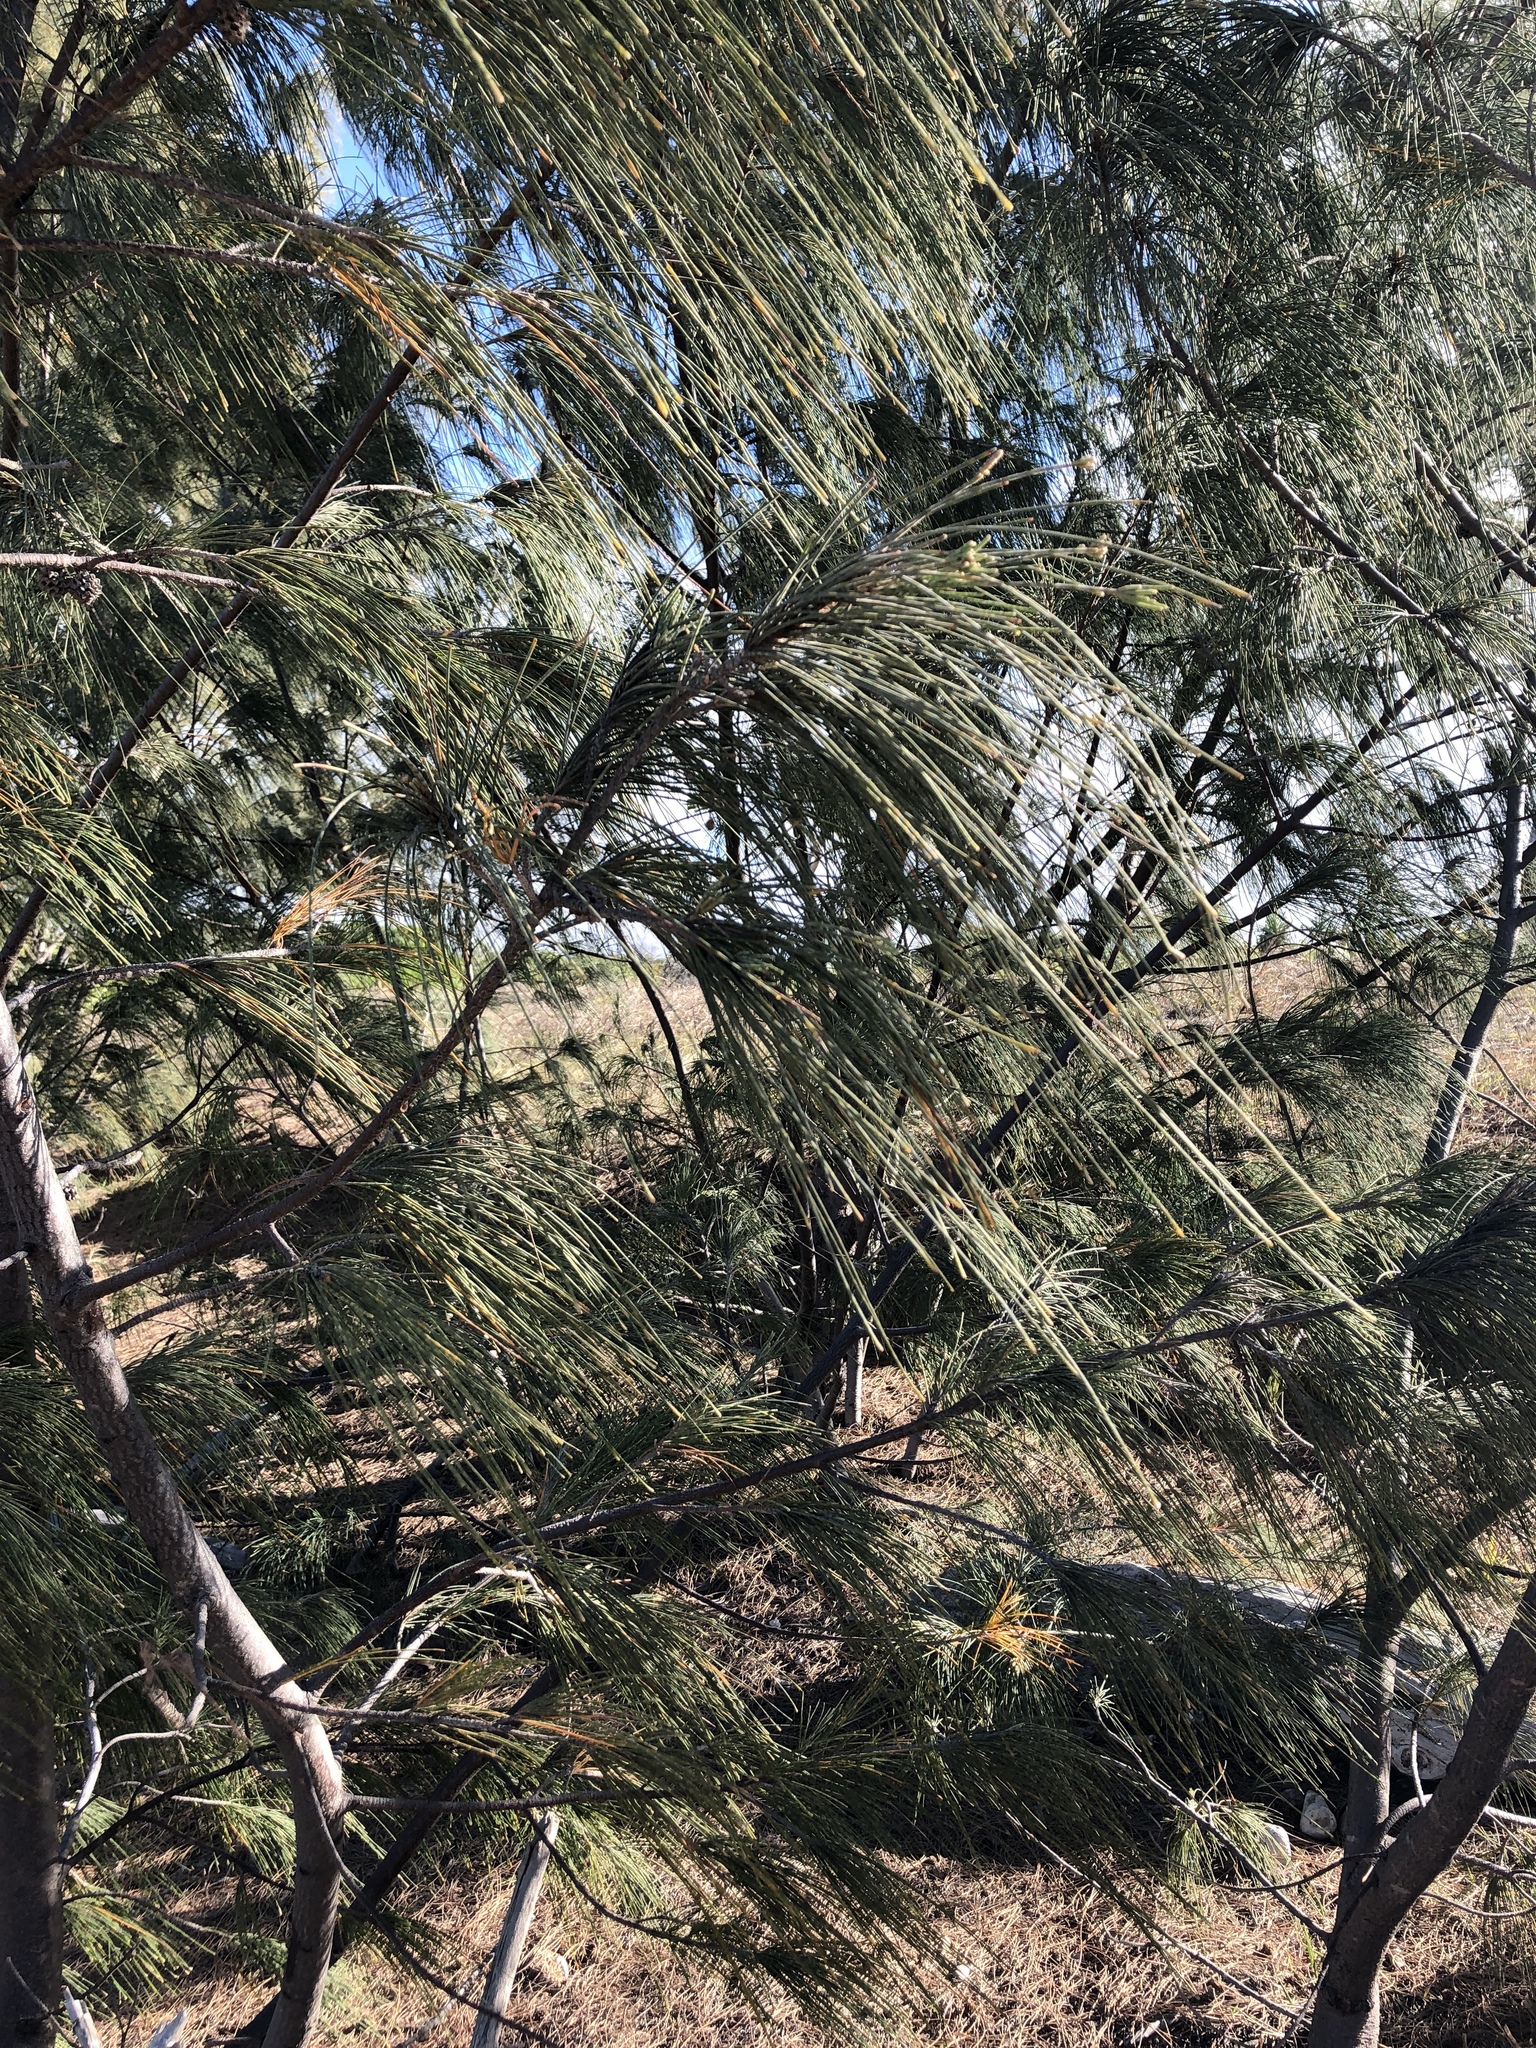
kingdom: Plantae
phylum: Tracheophyta
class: Magnoliopsida
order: Fagales
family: Casuarinaceae
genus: Casuarina
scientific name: Casuarina equisetifolia
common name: Beach sheoak
